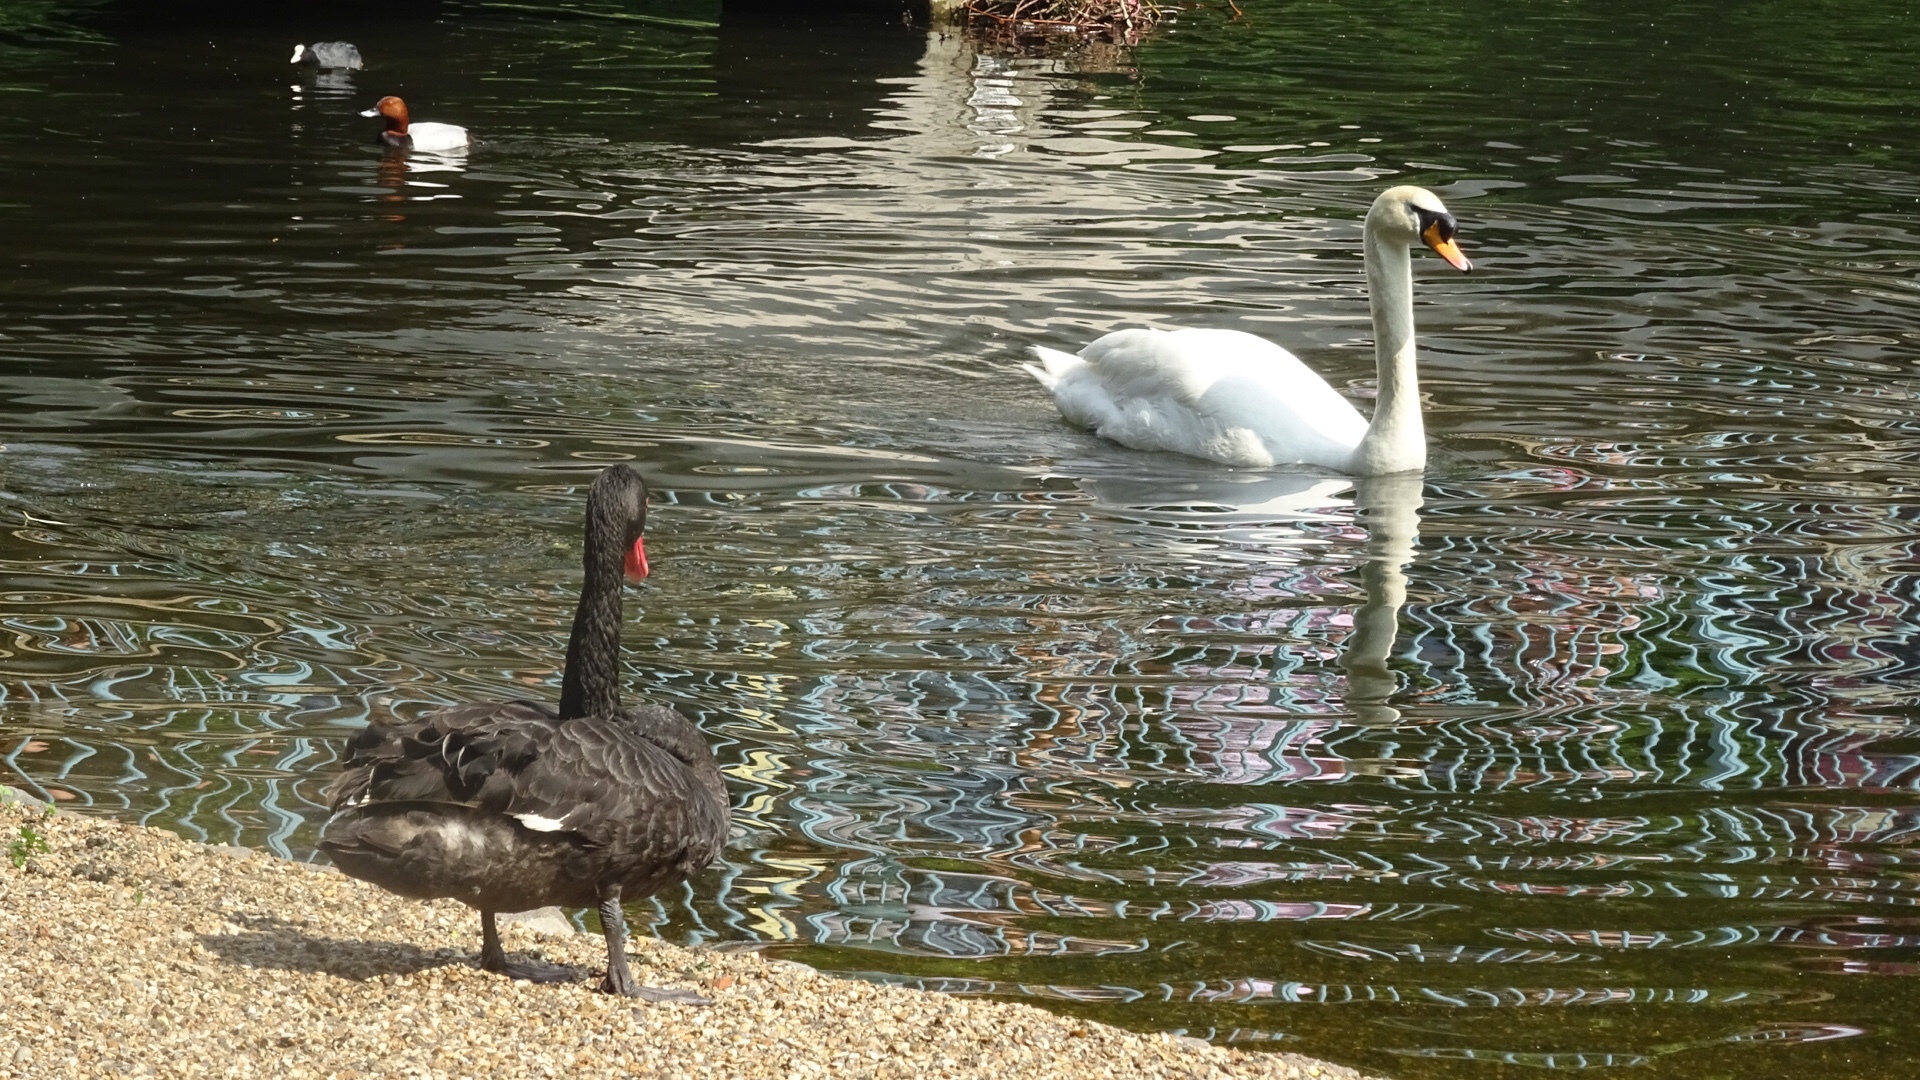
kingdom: Animalia
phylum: Chordata
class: Aves
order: Anseriformes
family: Anatidae
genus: Cygnus
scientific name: Cygnus atratus
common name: Black swan
